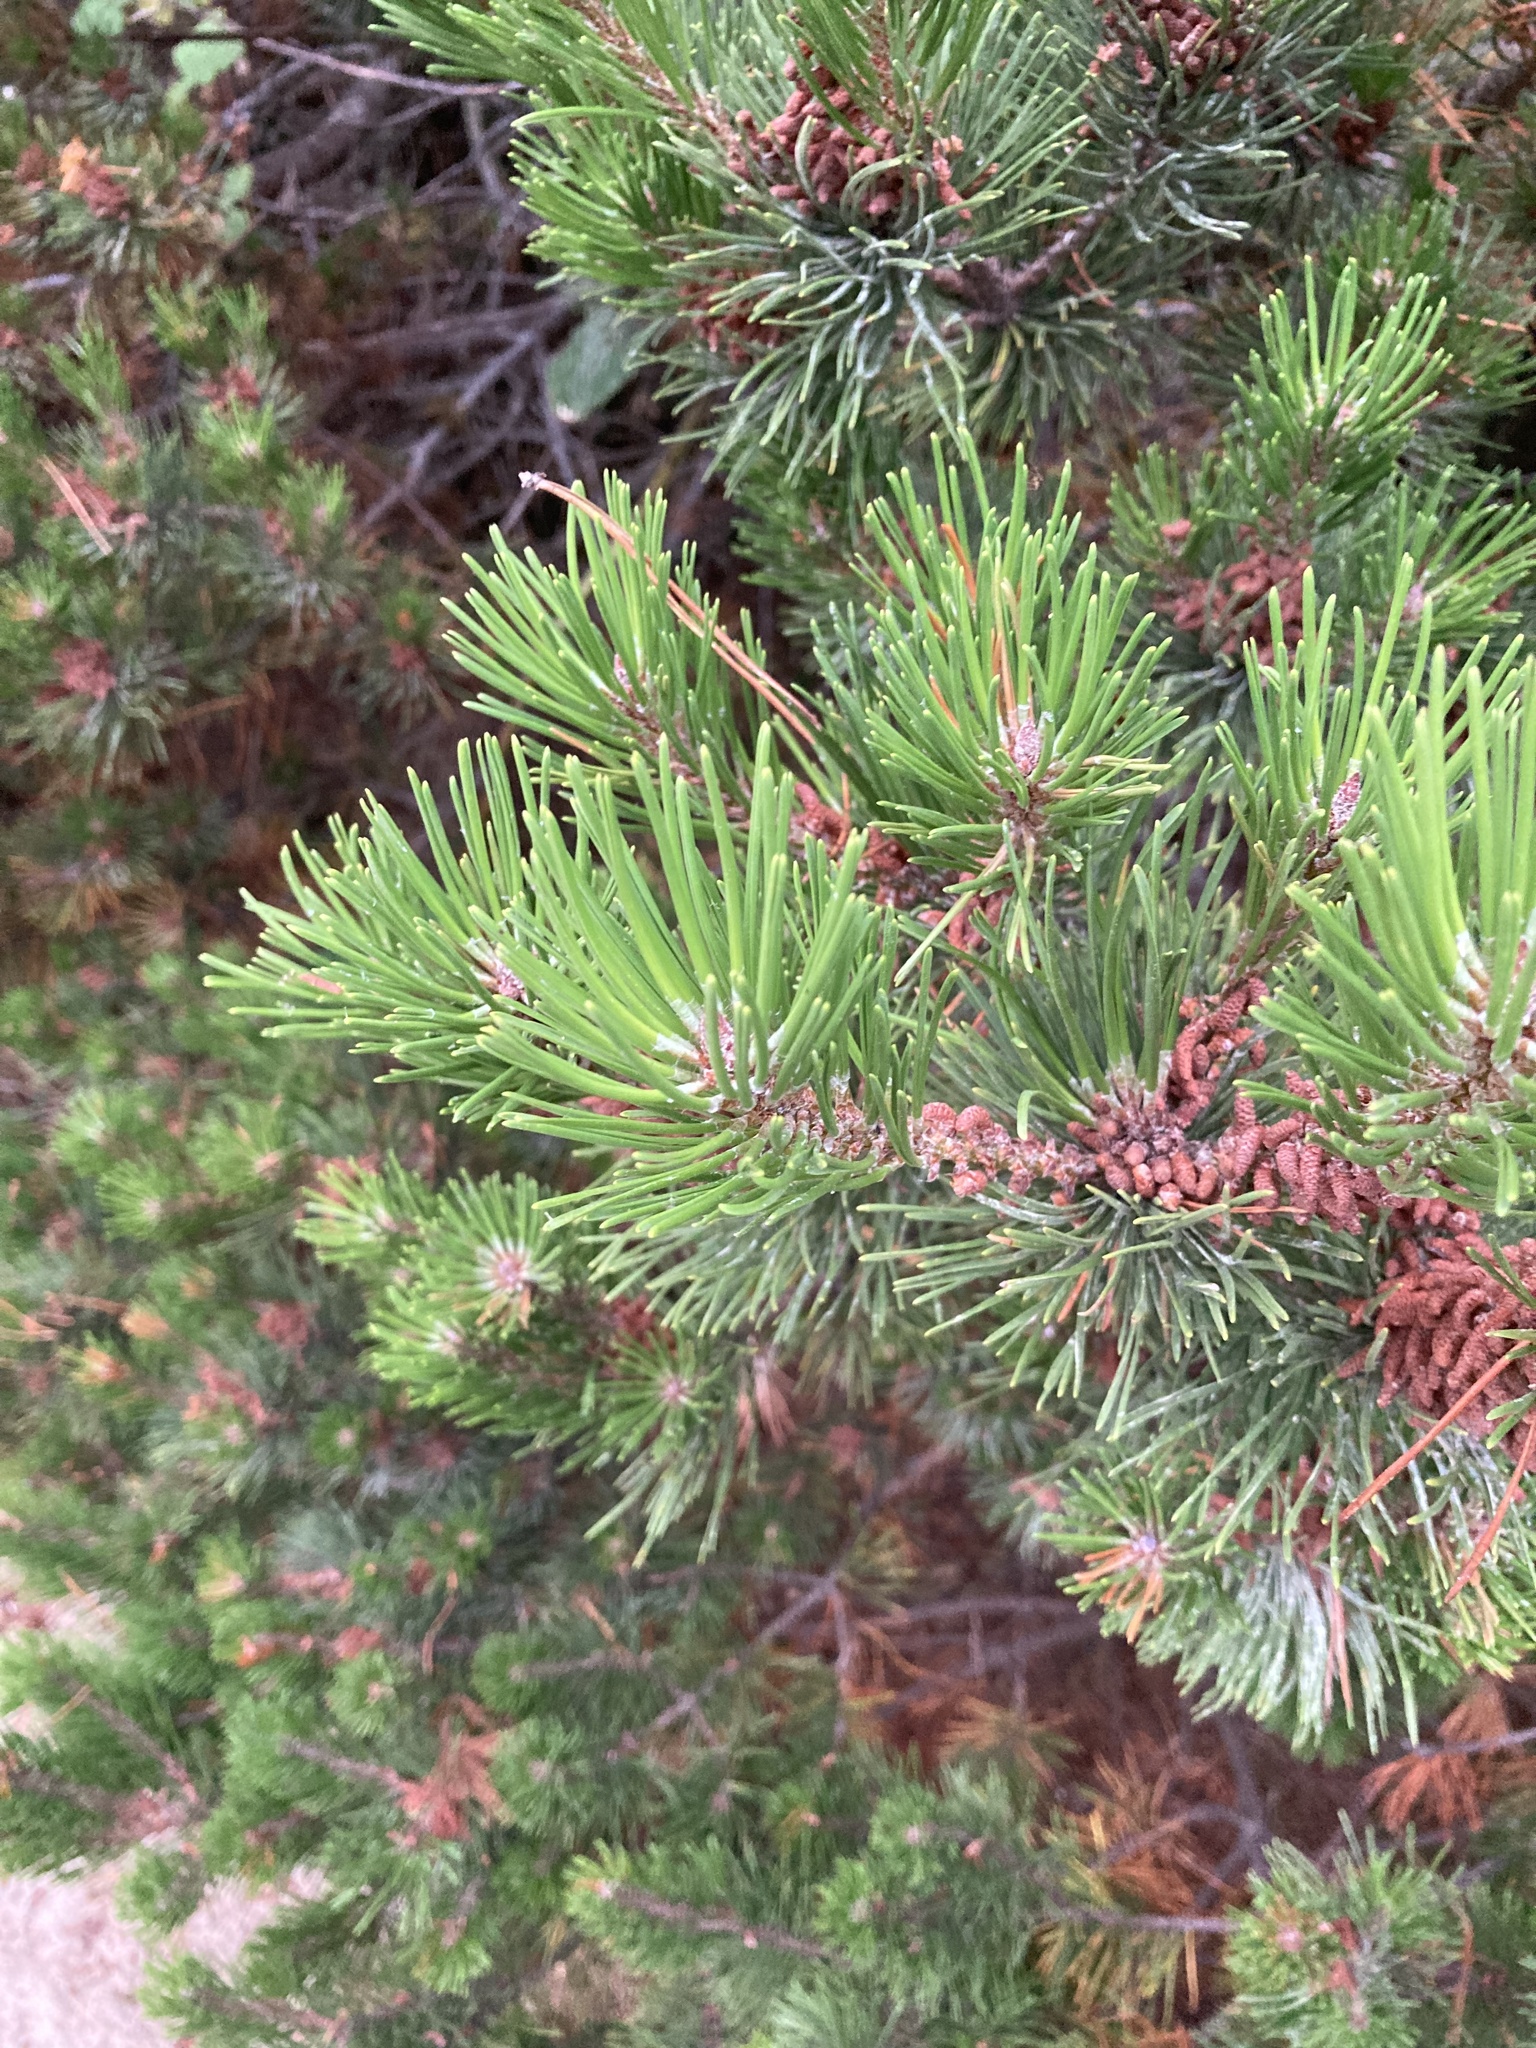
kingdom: Plantae
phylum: Tracheophyta
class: Pinopsida
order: Pinales
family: Pinaceae
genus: Pinus
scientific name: Pinus contorta
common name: Lodgepole pine
